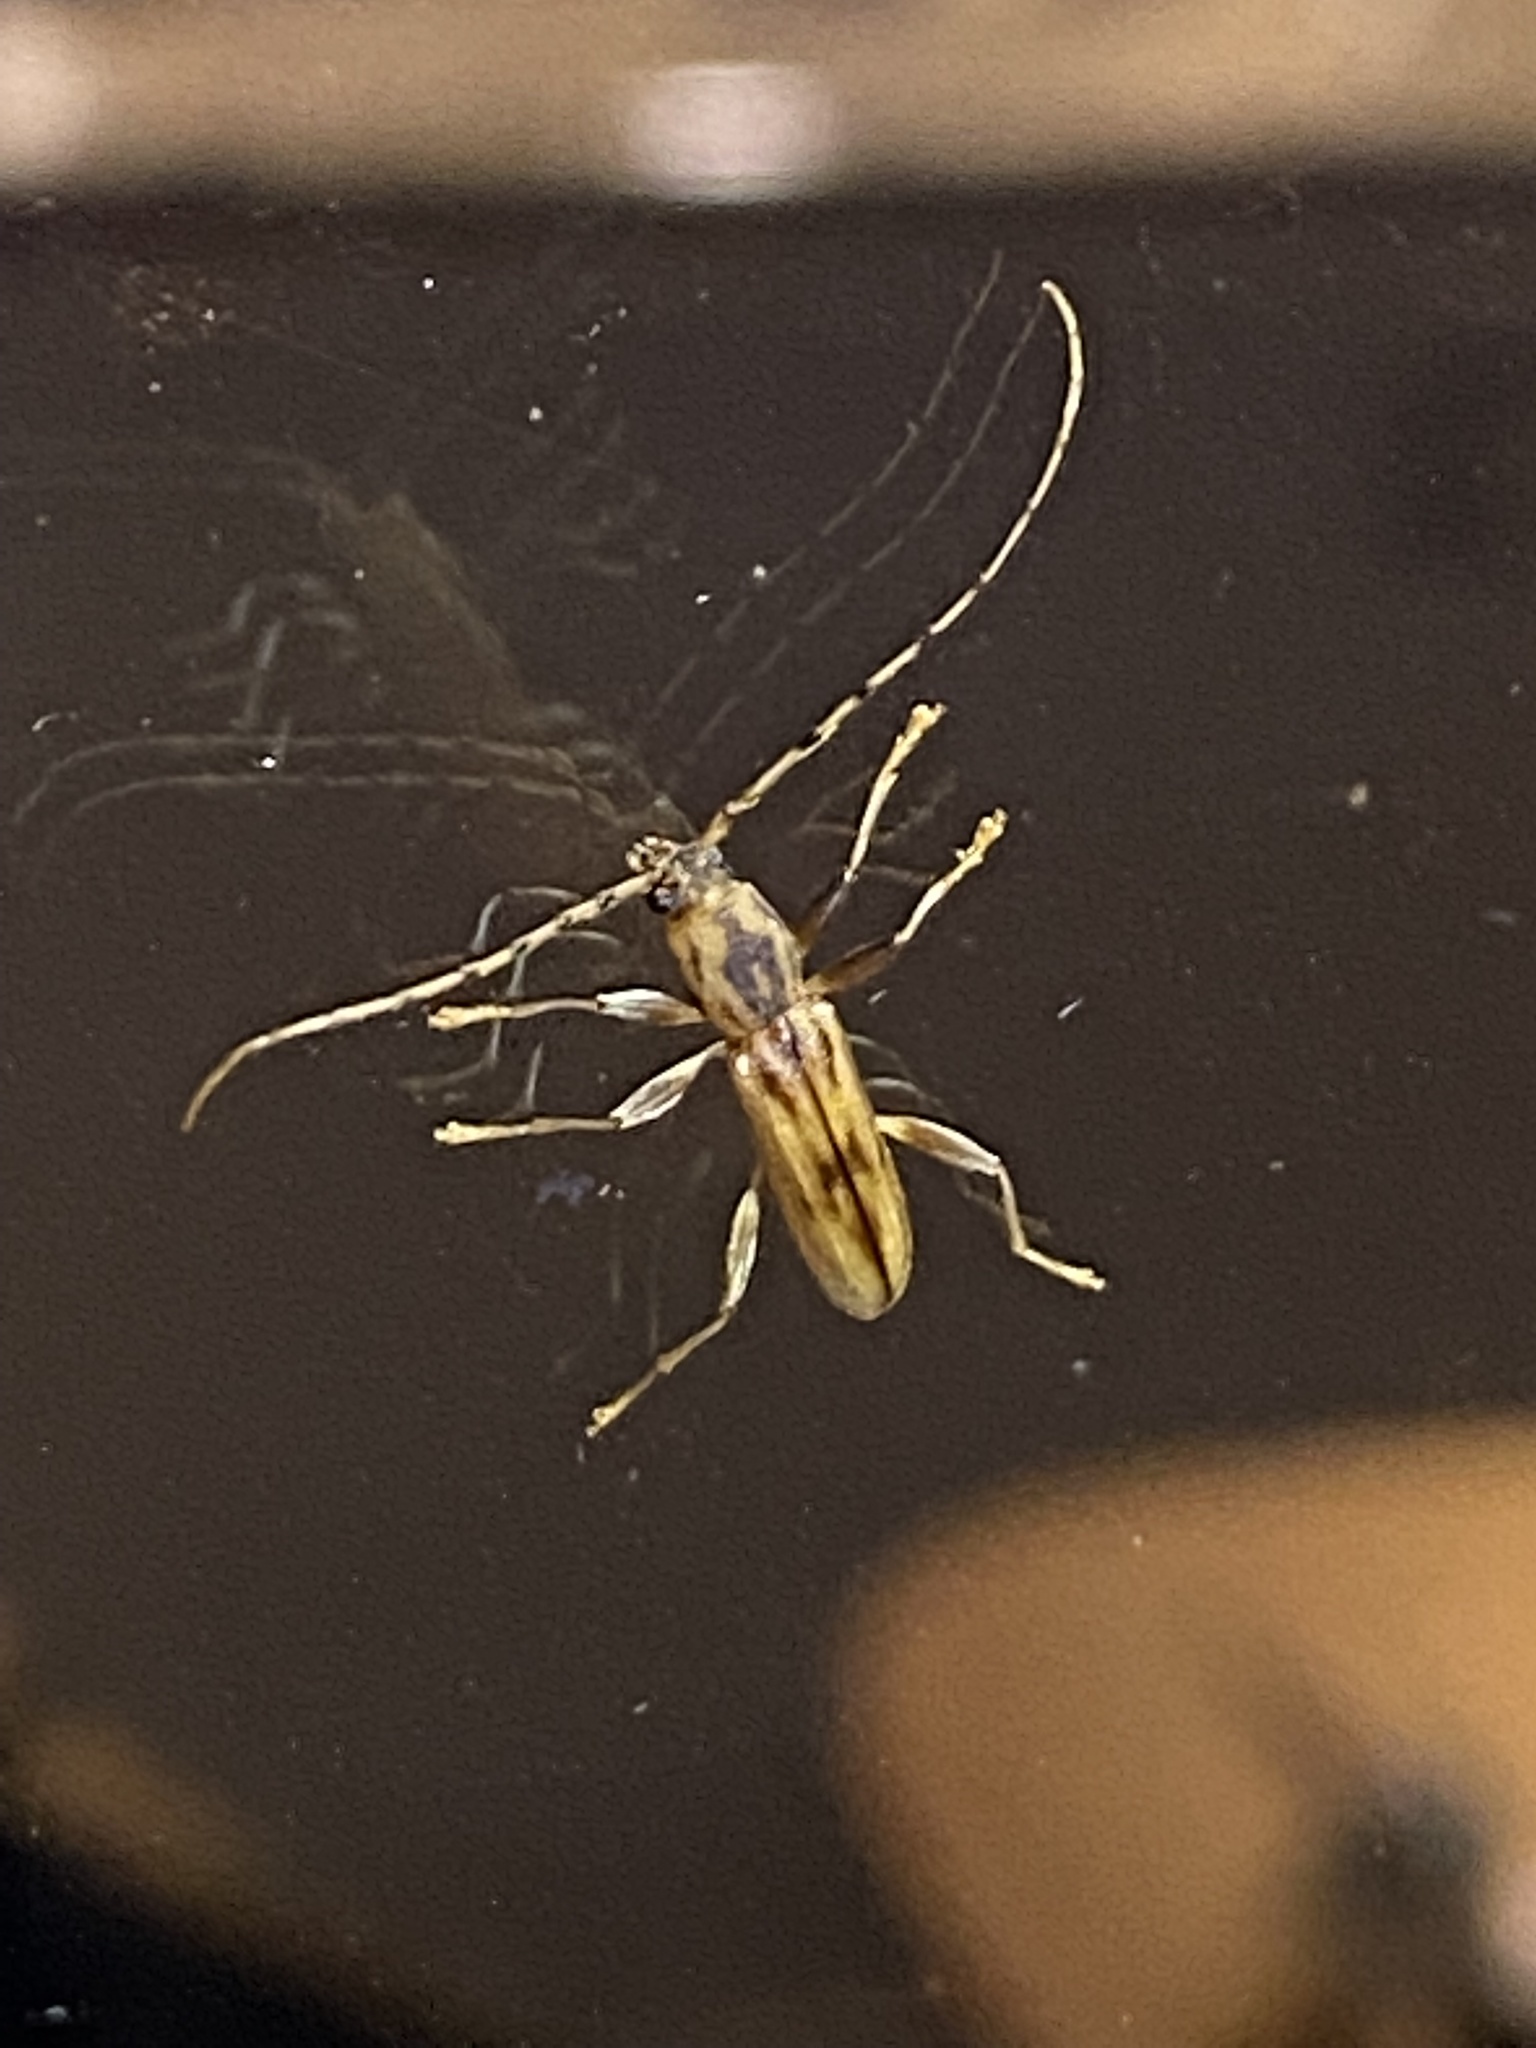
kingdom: Animalia
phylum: Arthropoda
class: Insecta
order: Coleoptera
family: Cerambycidae
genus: Curius
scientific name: Curius dentatus
